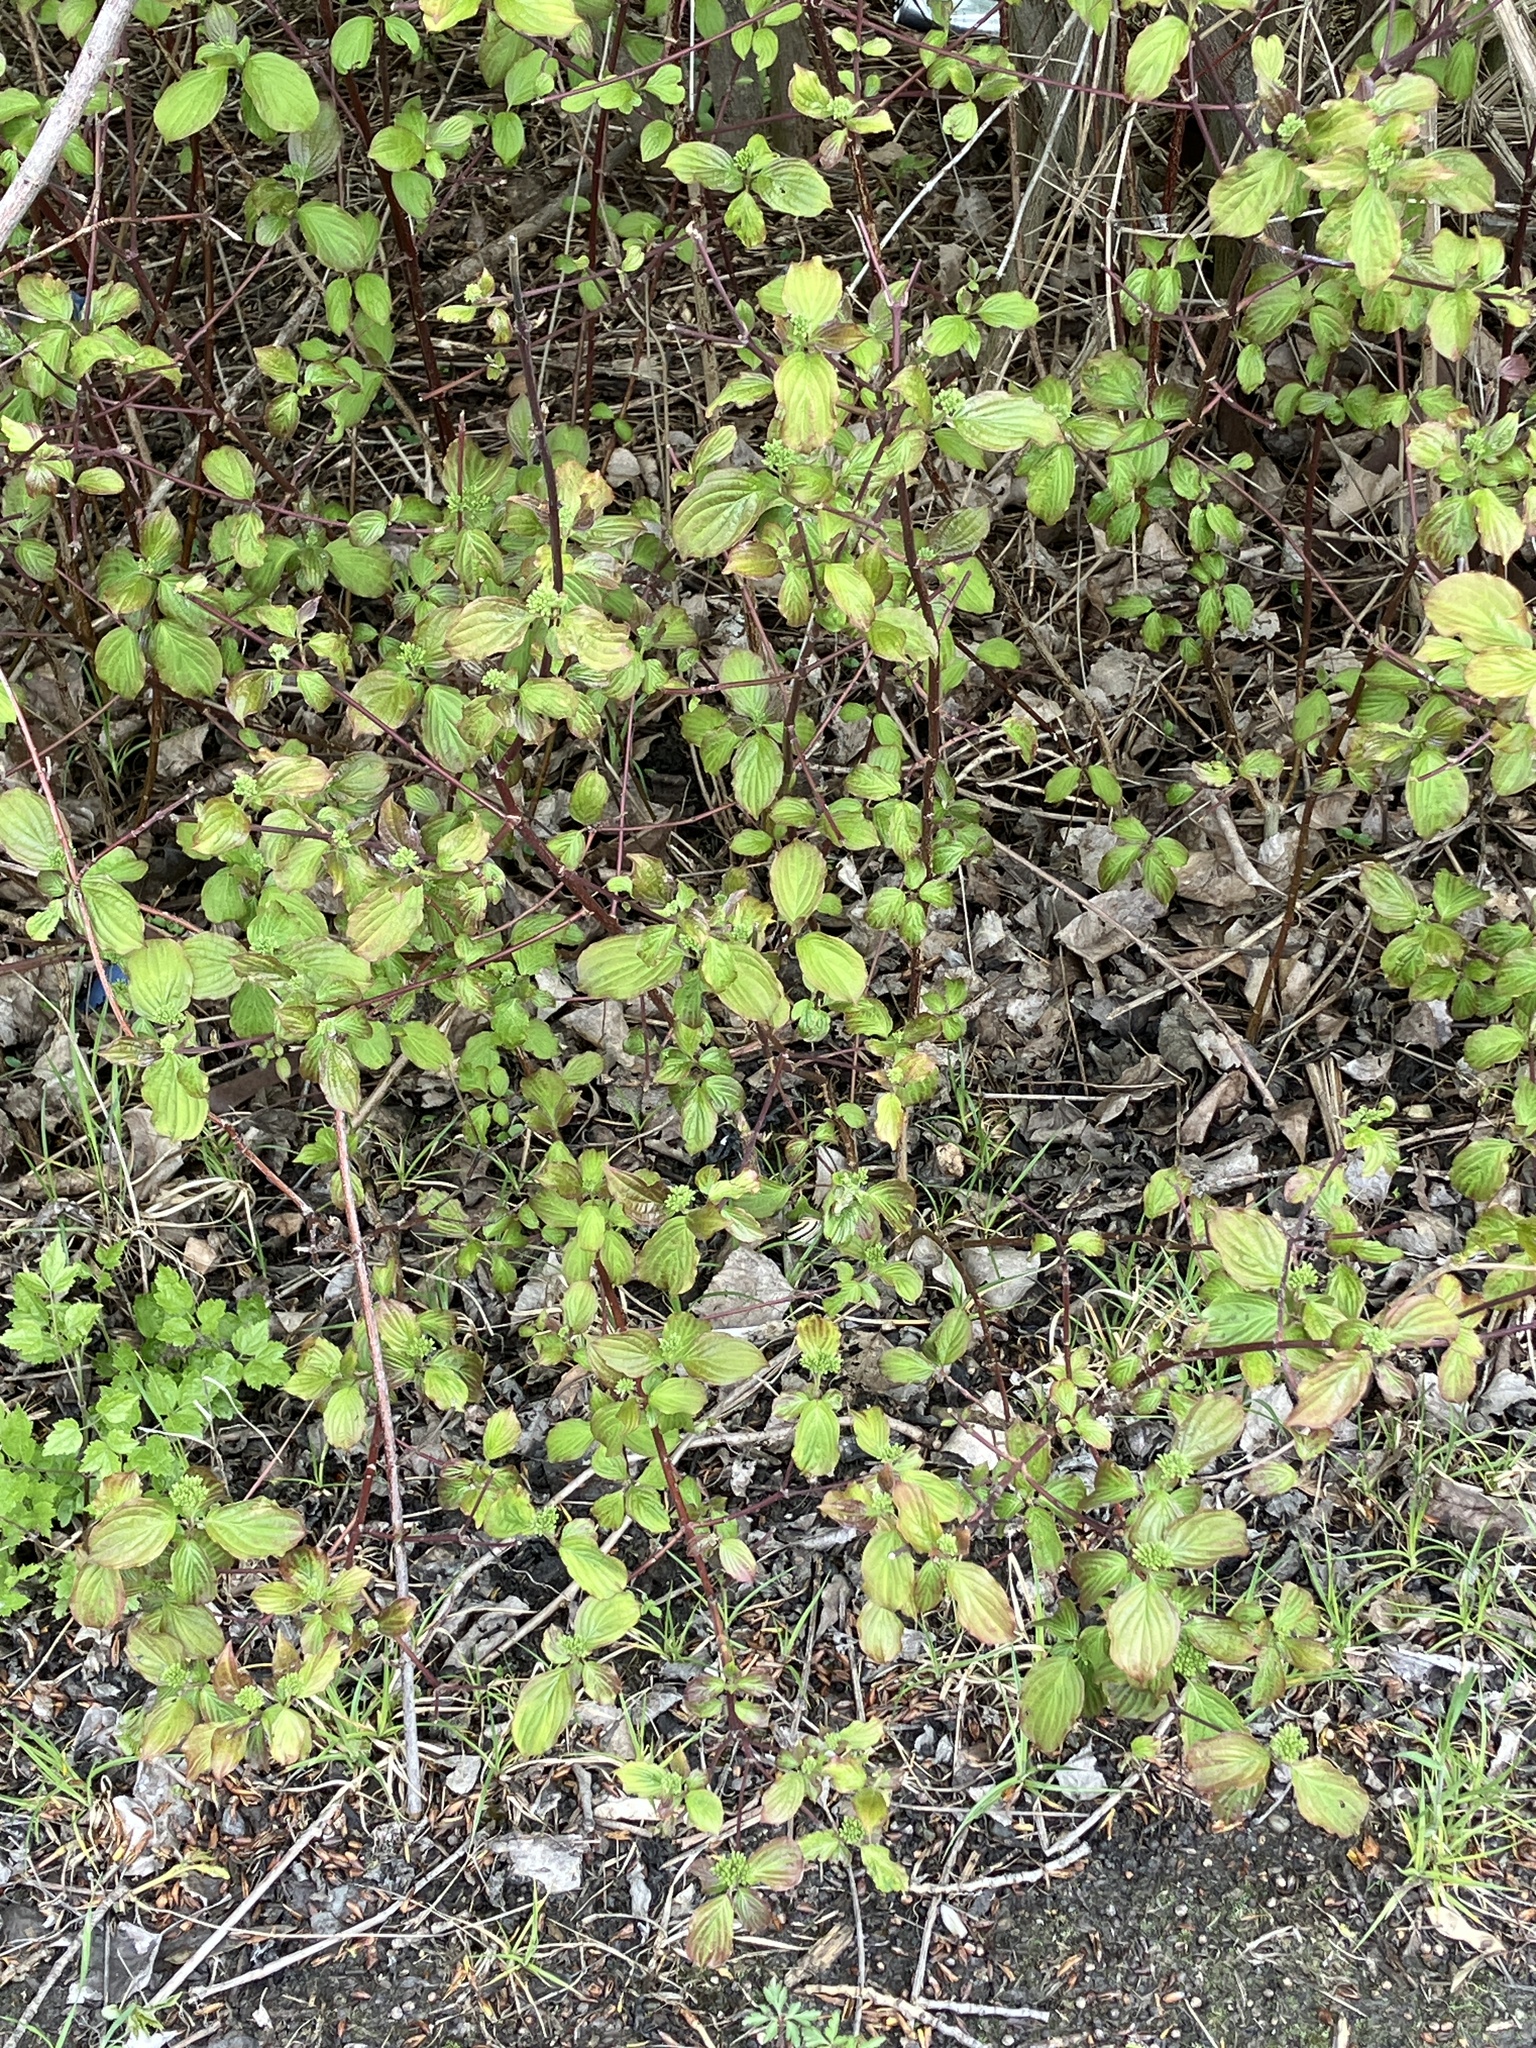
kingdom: Plantae
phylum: Tracheophyta
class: Magnoliopsida
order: Cornales
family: Cornaceae
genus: Cornus
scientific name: Cornus sanguinea
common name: Dogwood
